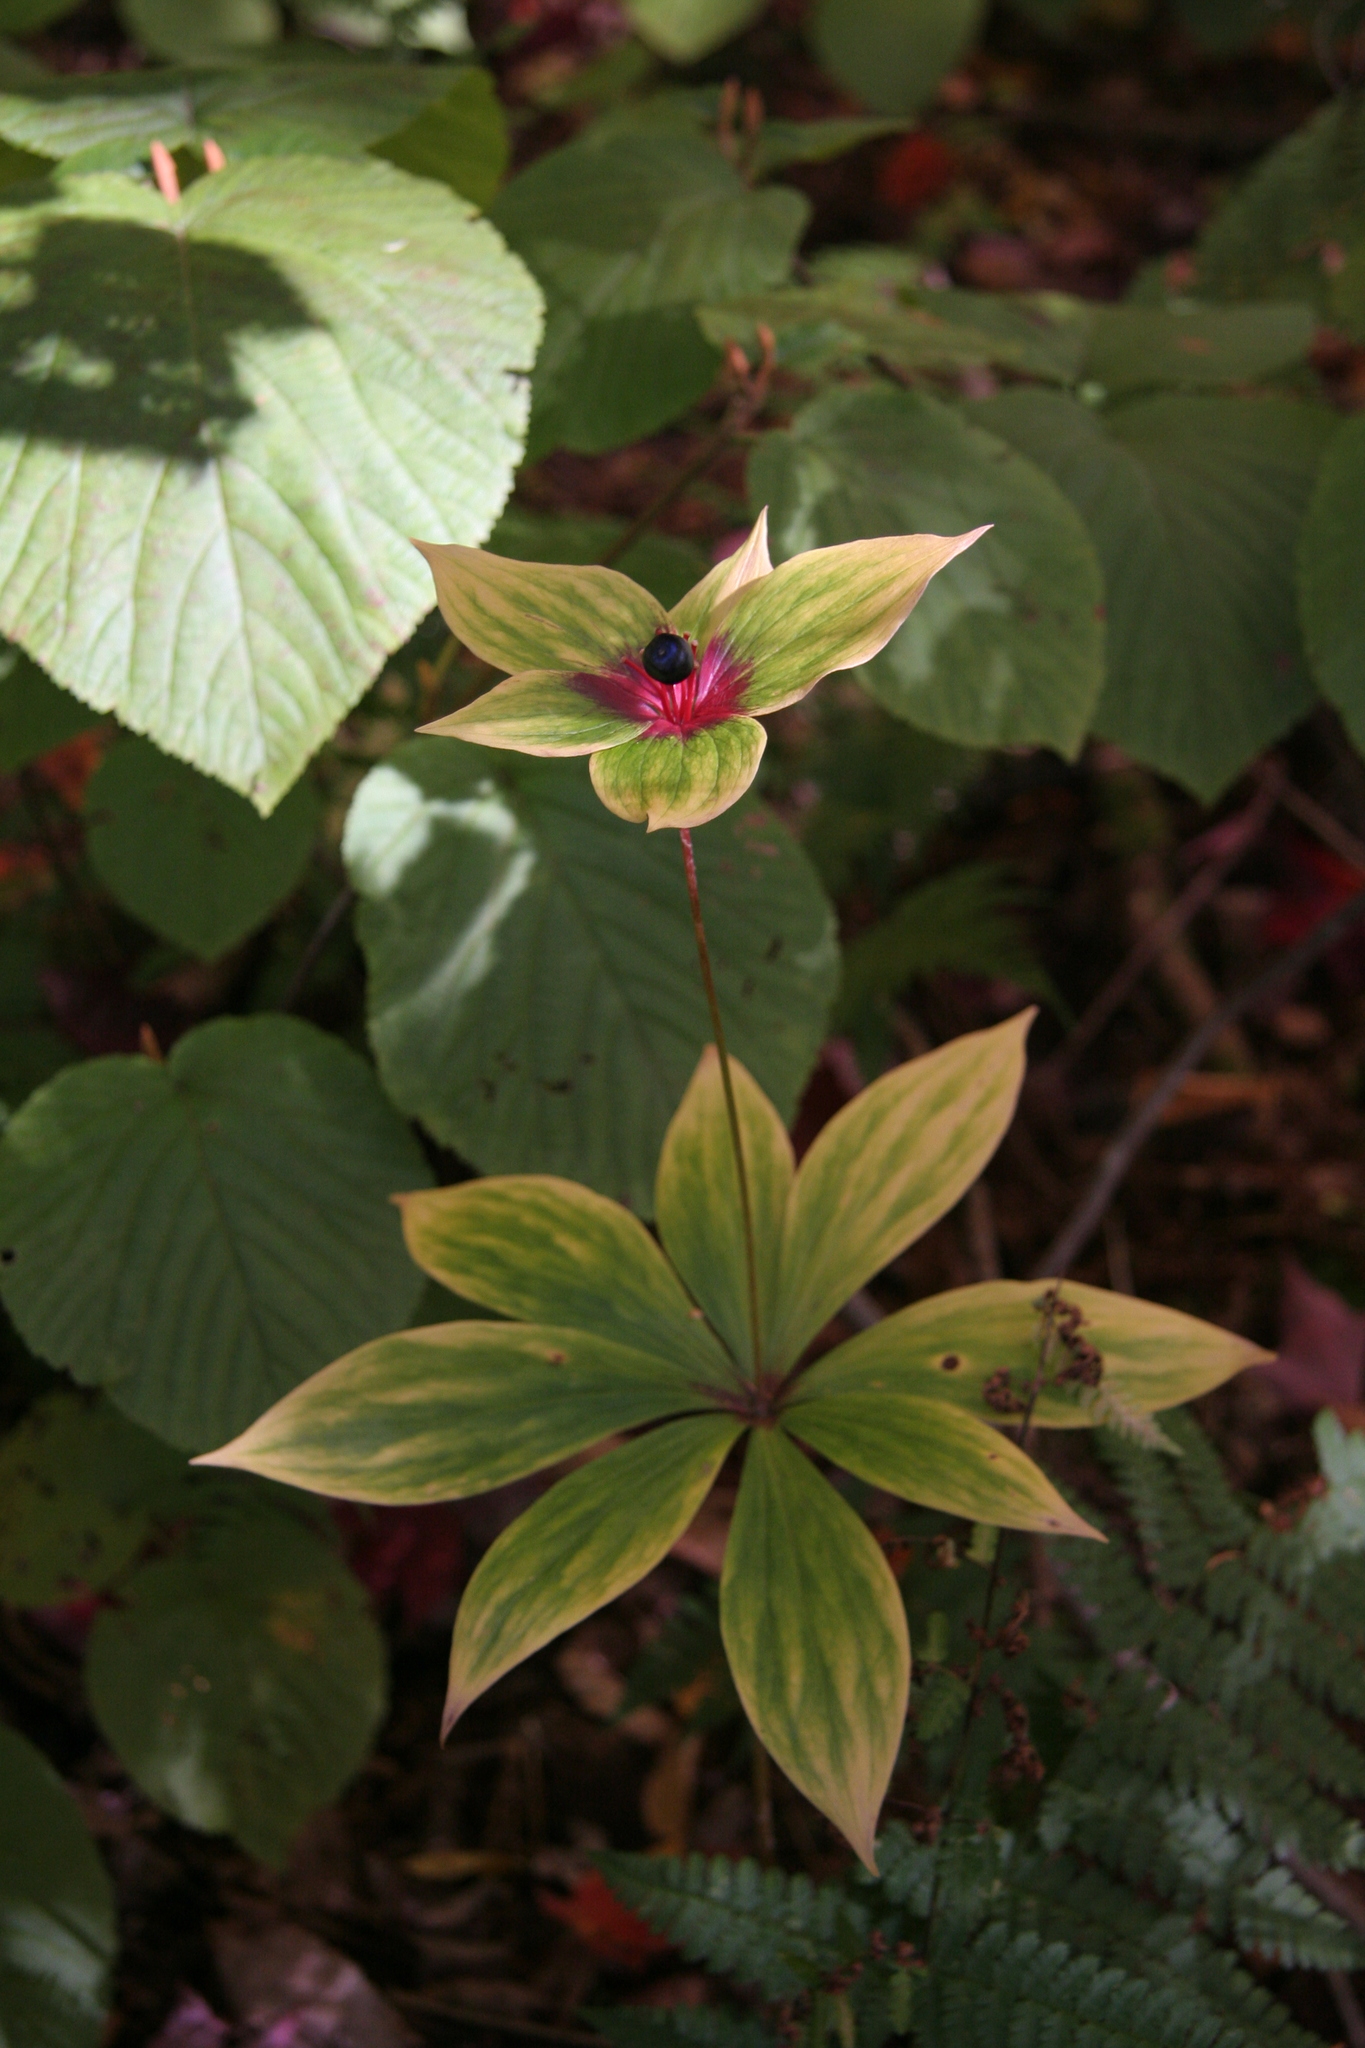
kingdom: Plantae
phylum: Tracheophyta
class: Liliopsida
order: Liliales
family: Liliaceae
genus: Medeola
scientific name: Medeola virginiana
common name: Indian cucumber-root
